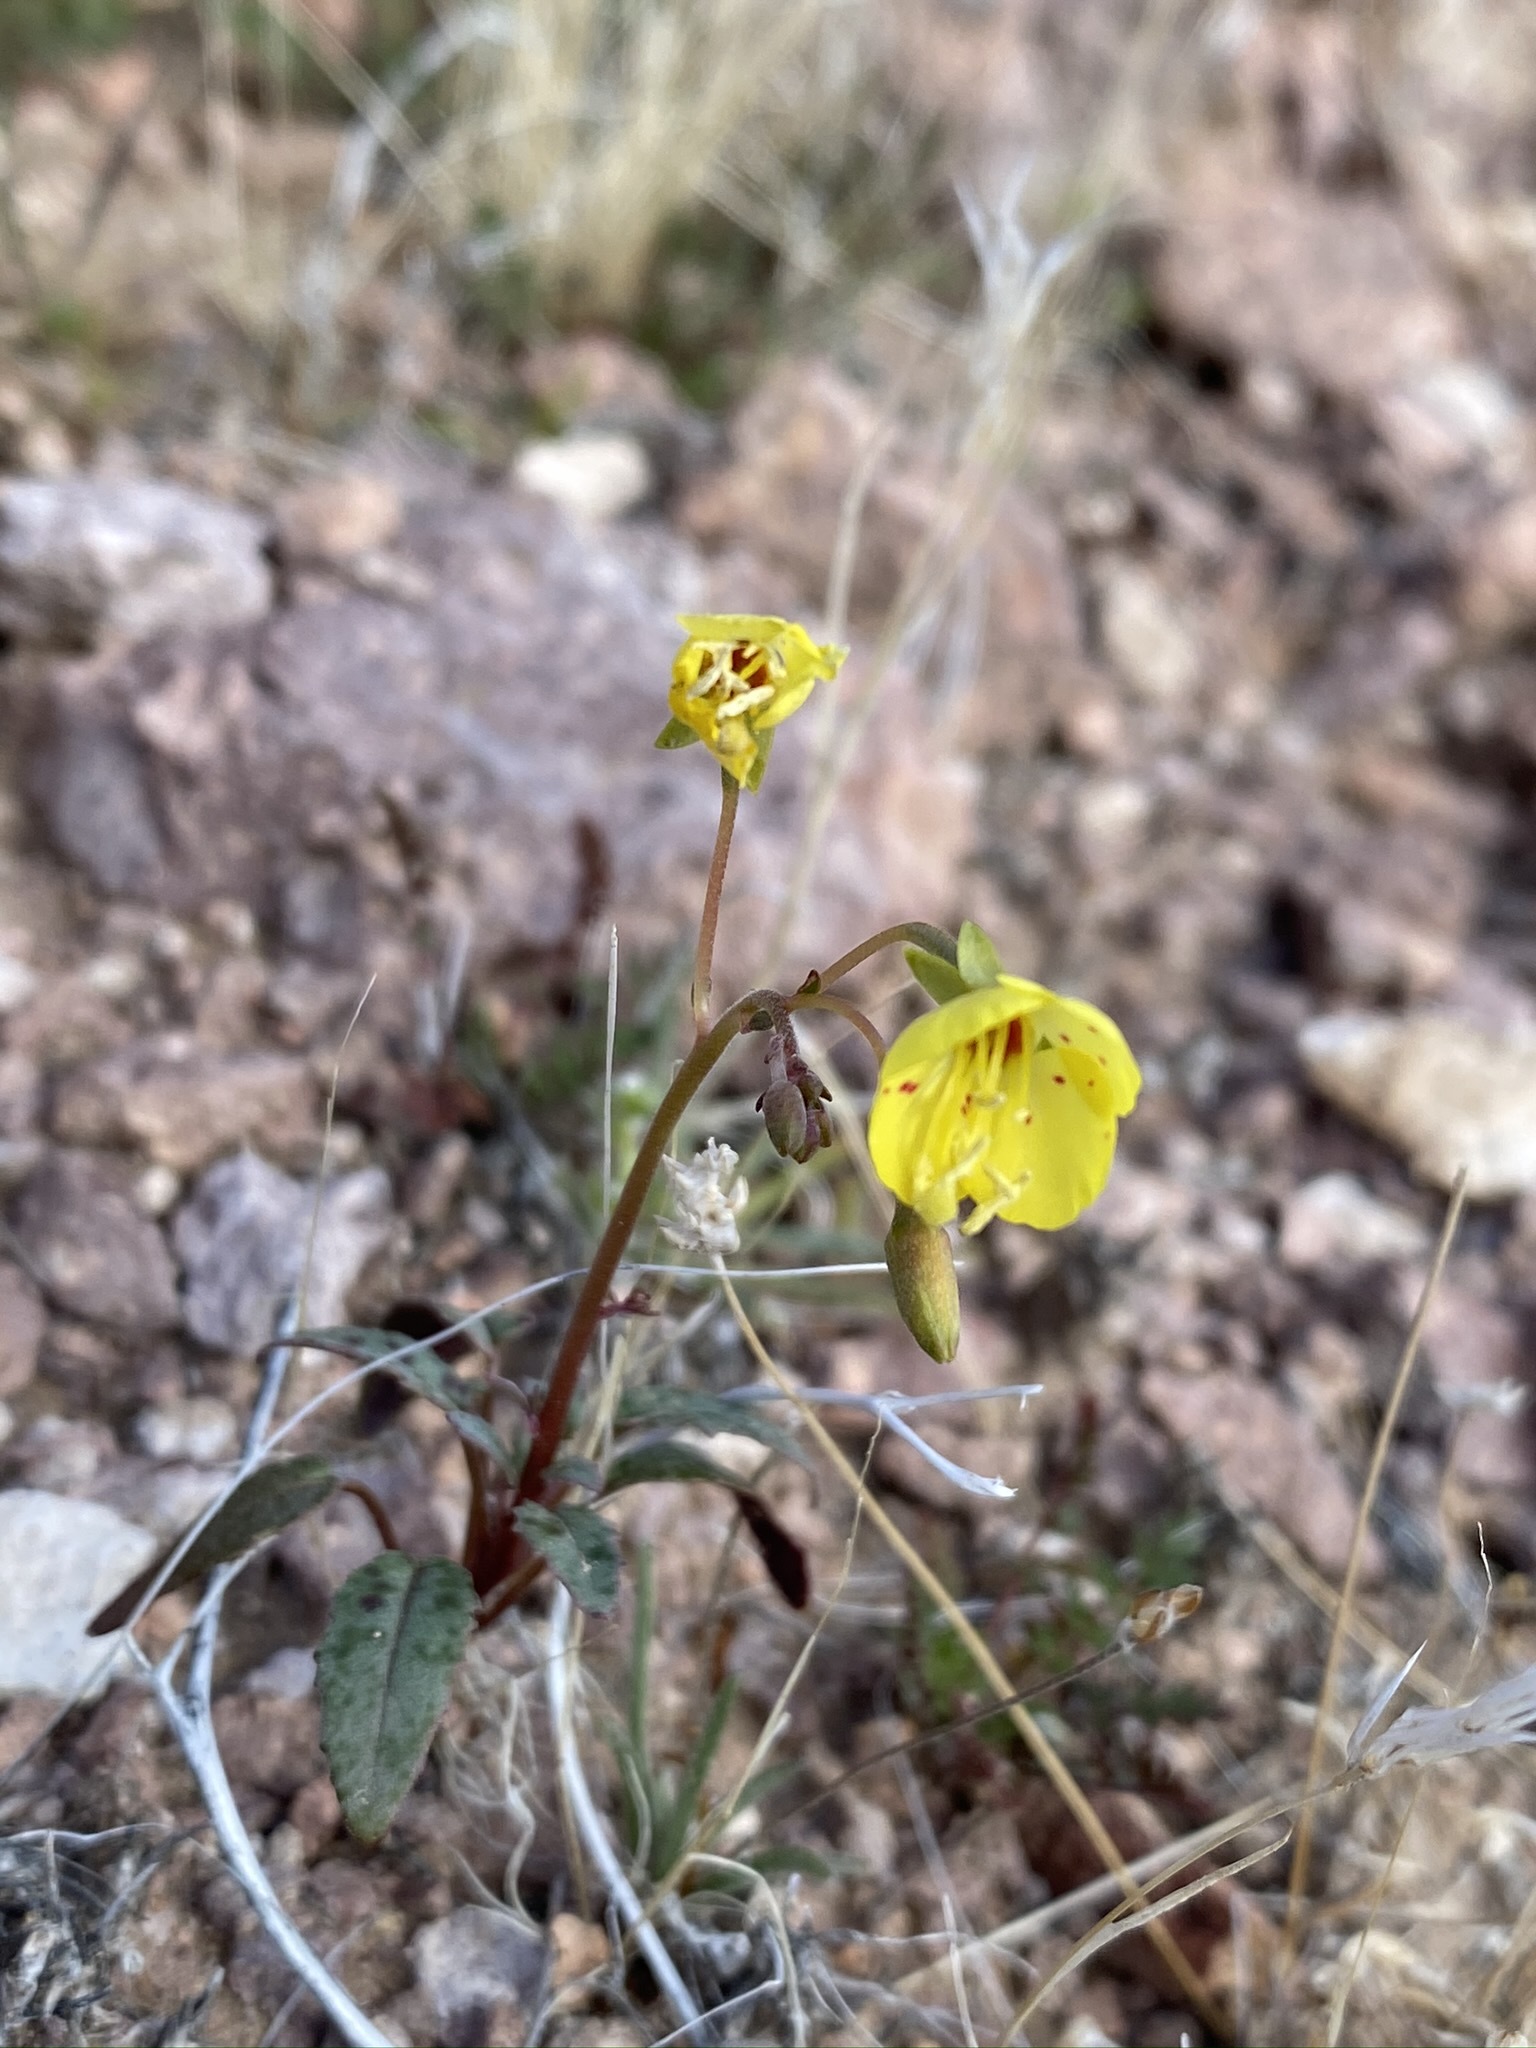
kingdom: Plantae
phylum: Tracheophyta
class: Magnoliopsida
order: Myrtales
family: Onagraceae
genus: Chylismia
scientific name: Chylismia claviformis
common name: Browneyes
